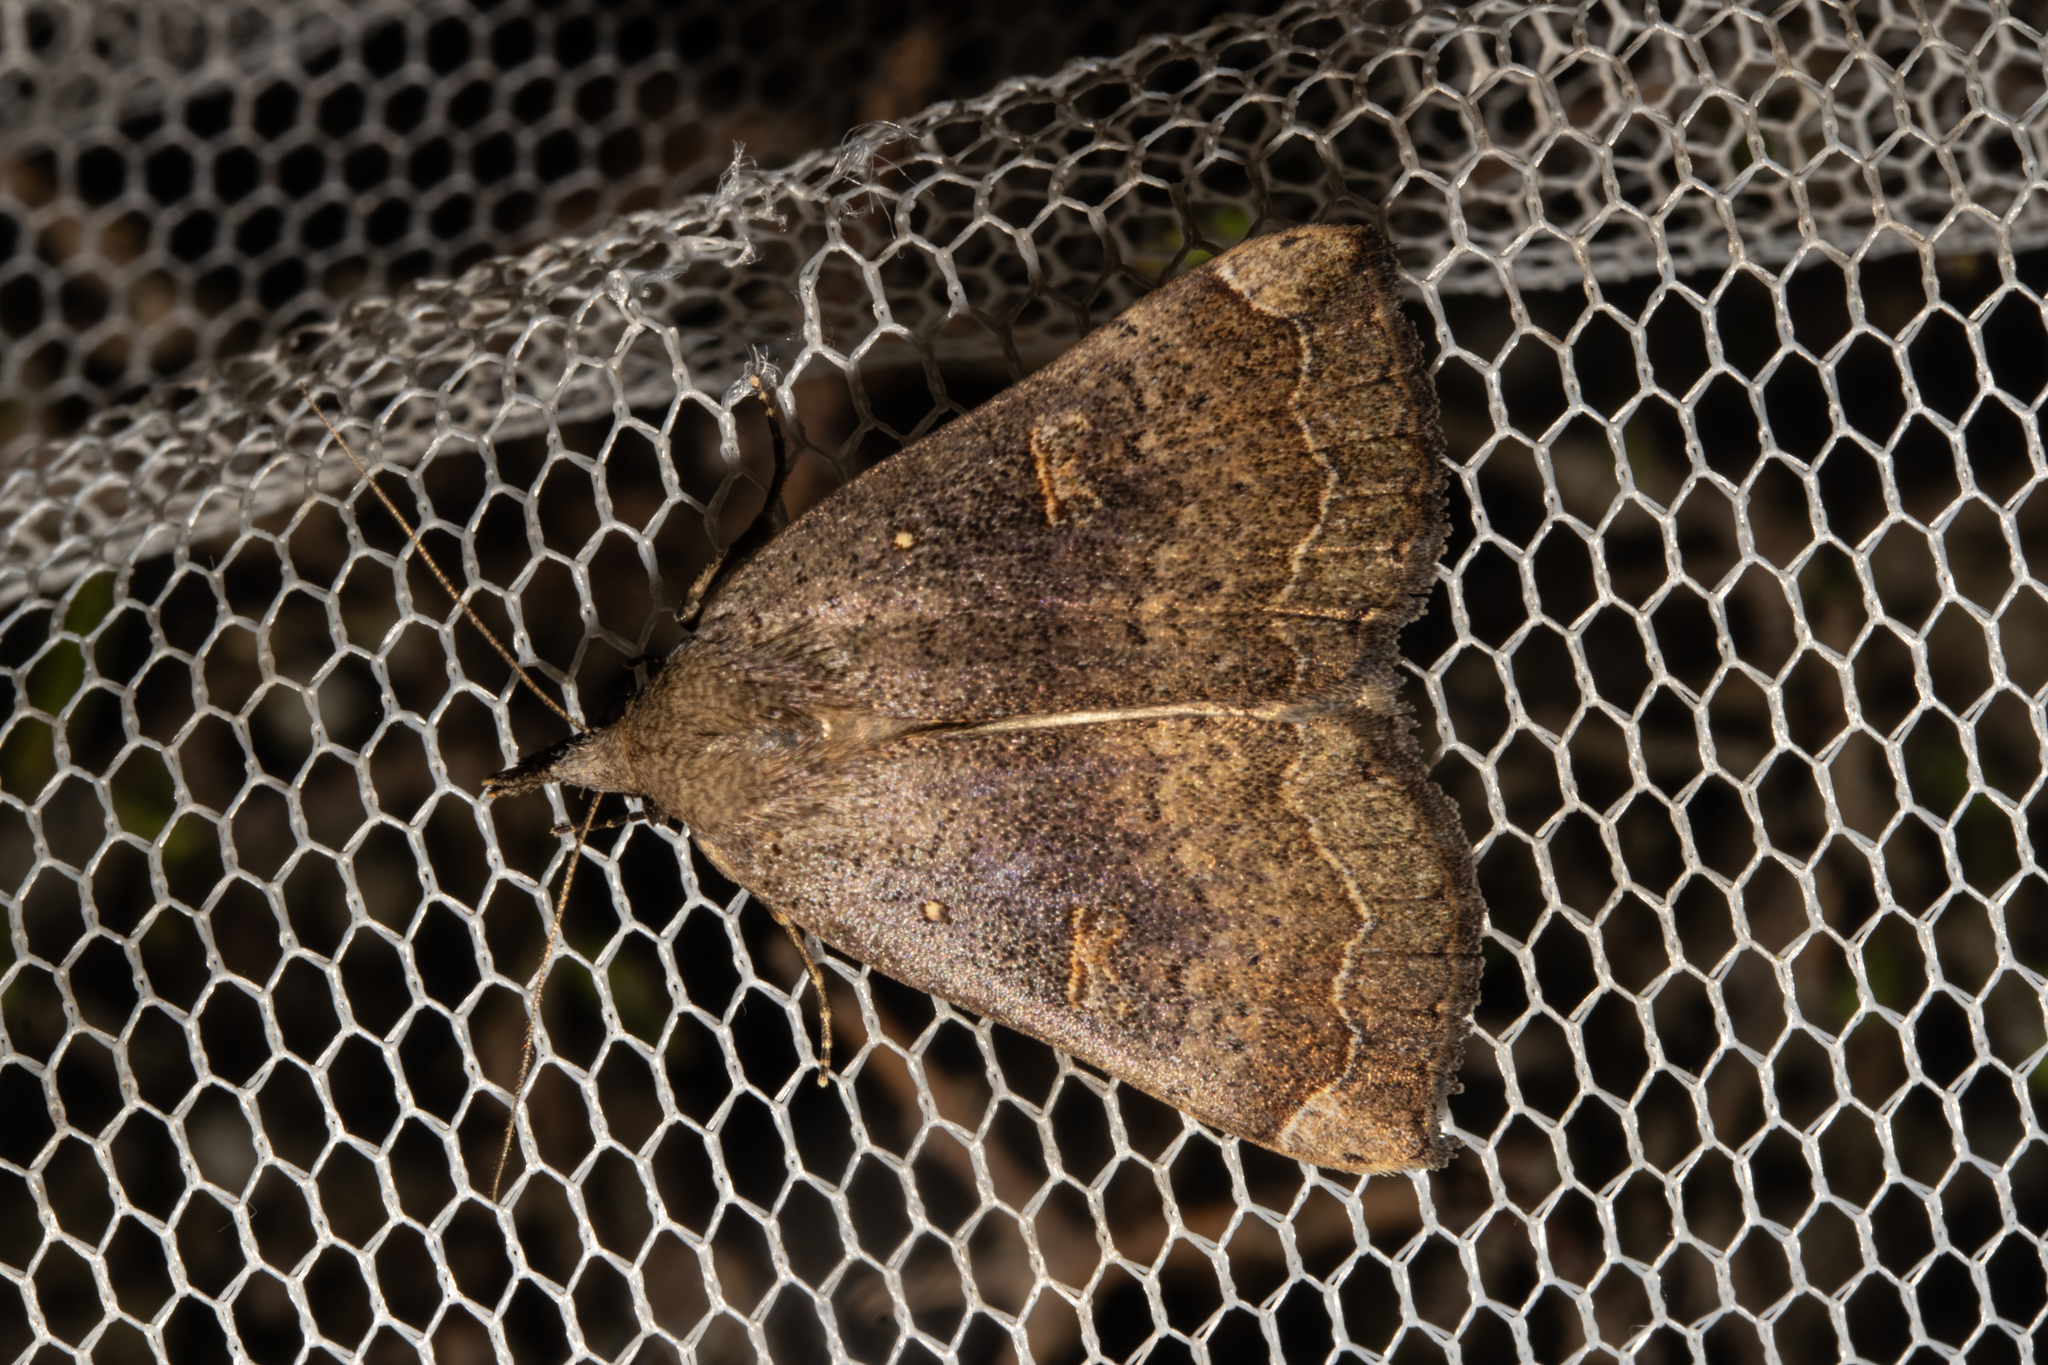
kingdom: Animalia
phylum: Arthropoda
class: Insecta
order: Lepidoptera
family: Erebidae
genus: Rhapsa
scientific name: Rhapsa scotosialis
